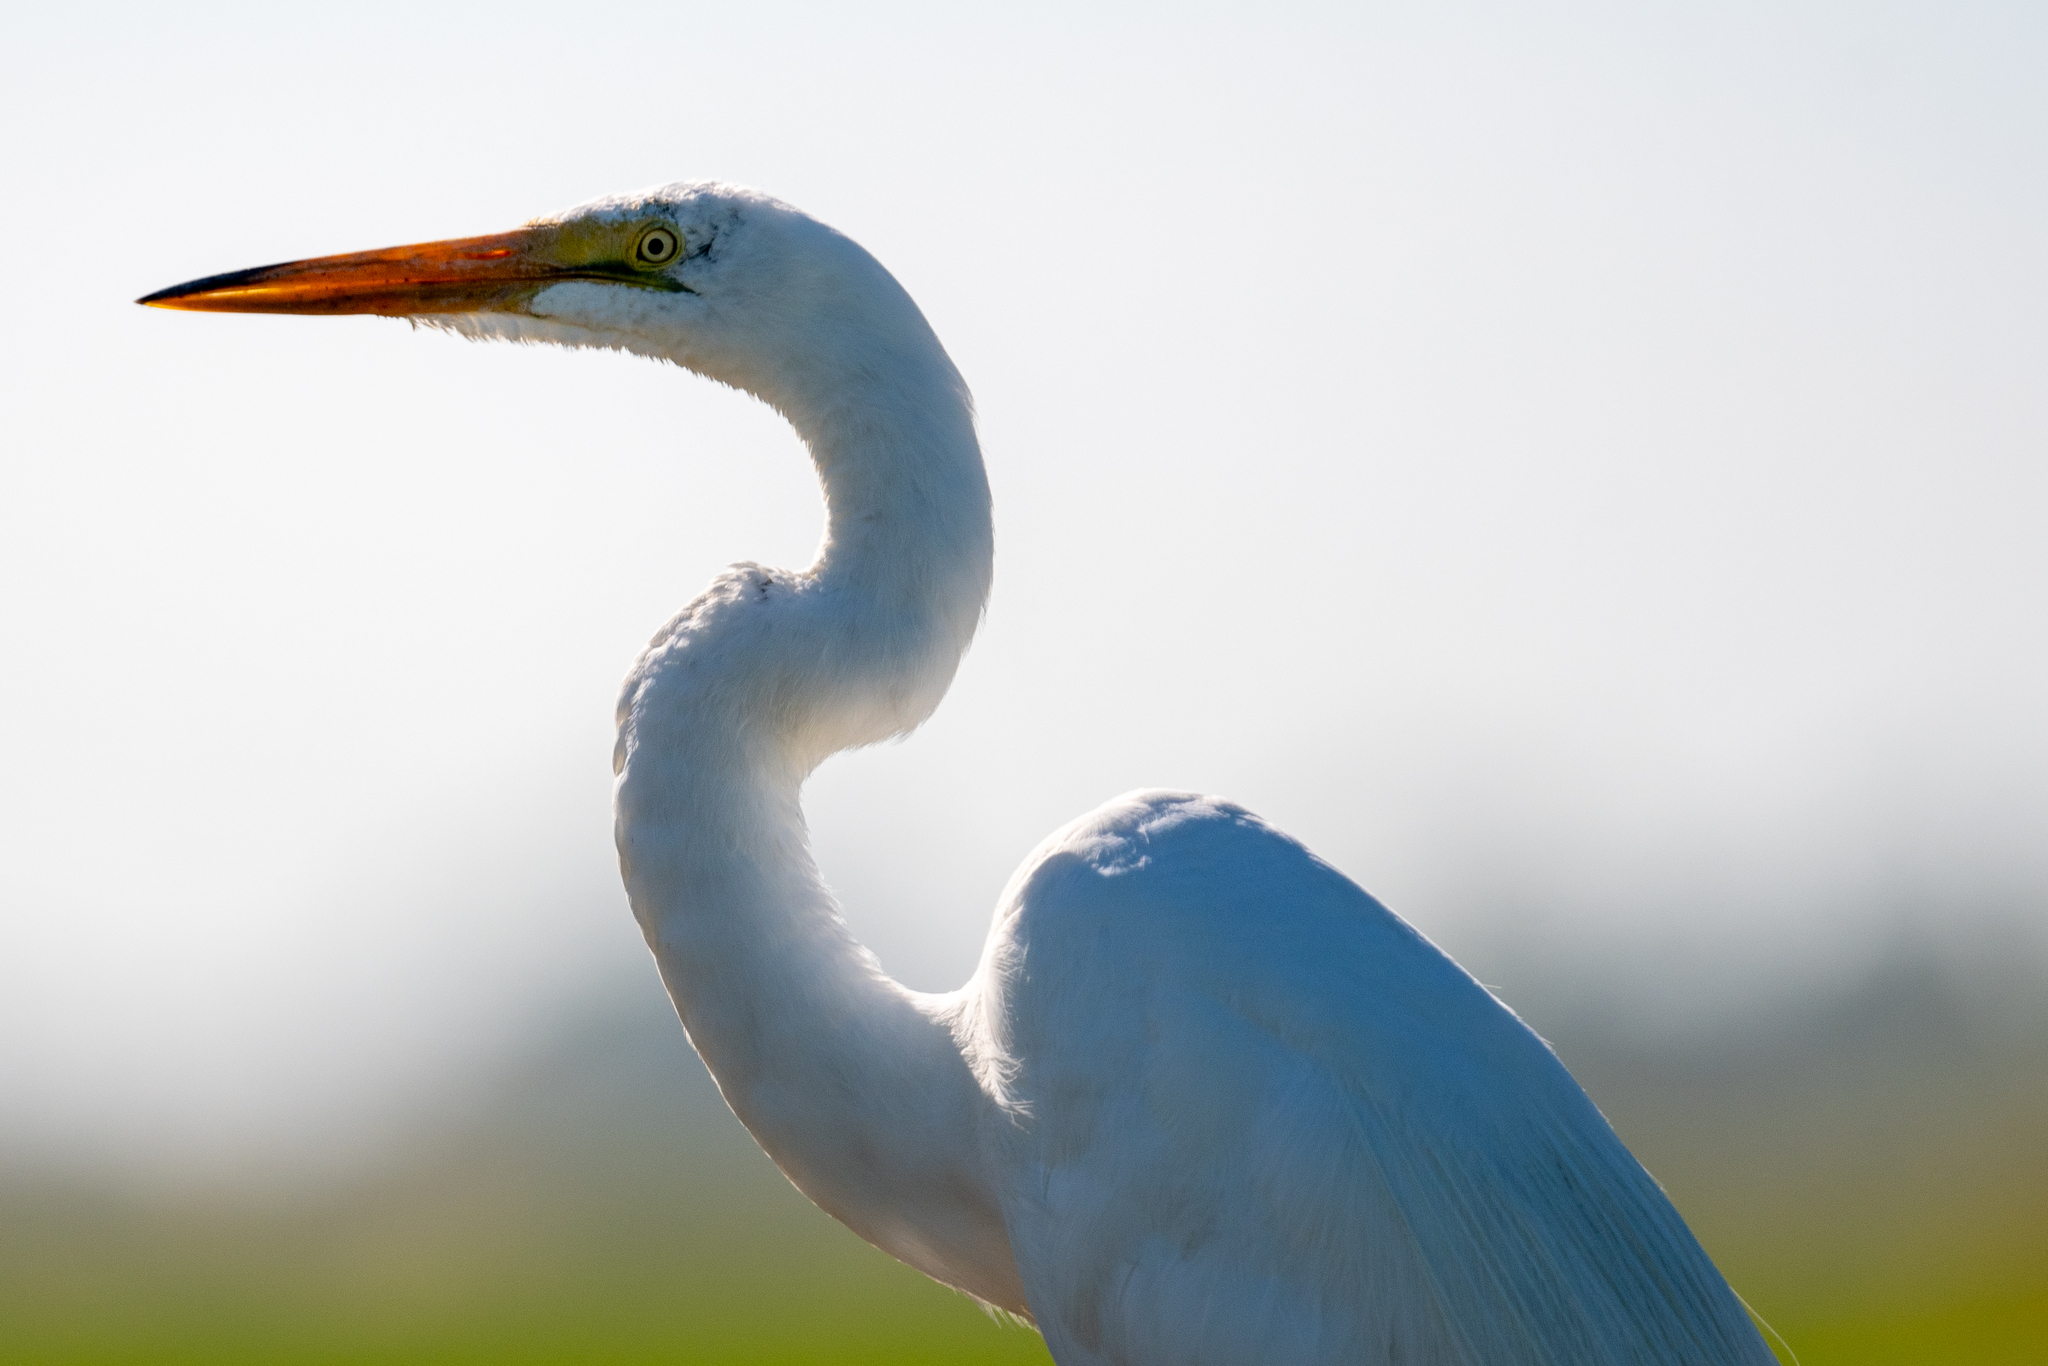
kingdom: Animalia
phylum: Chordata
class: Aves
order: Pelecaniformes
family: Ardeidae
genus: Ardea
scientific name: Ardea alba
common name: Great egret
